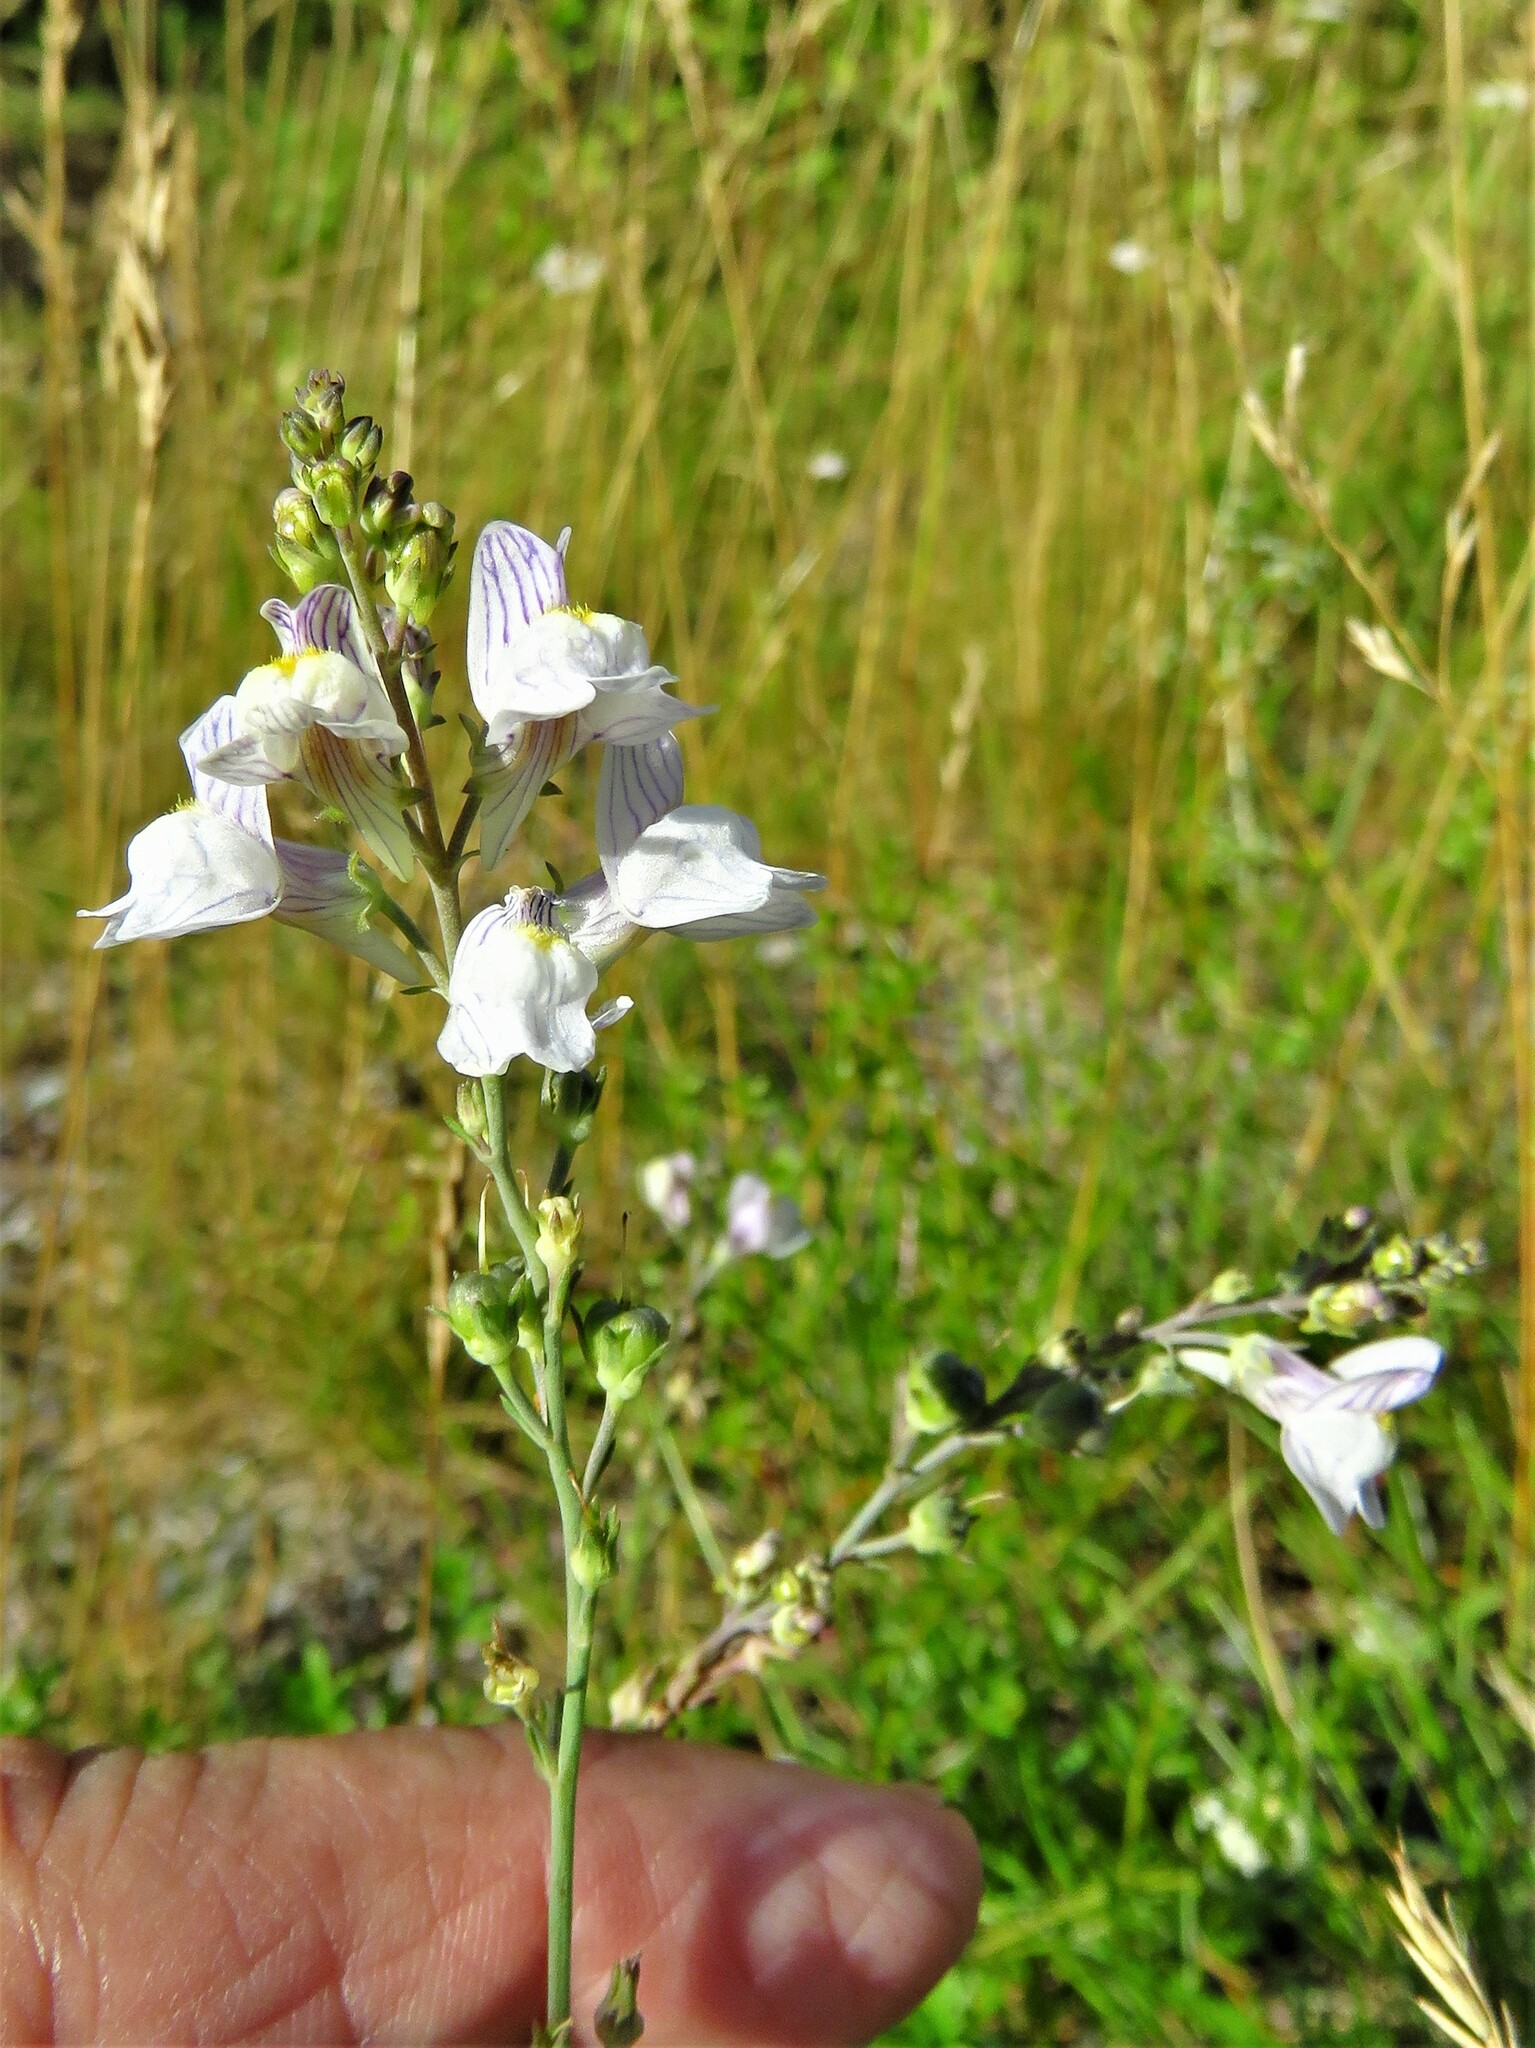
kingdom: Plantae
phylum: Tracheophyta
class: Magnoliopsida
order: Lamiales
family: Plantaginaceae
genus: Linaria
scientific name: Linaria repens
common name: Pale toadflax
